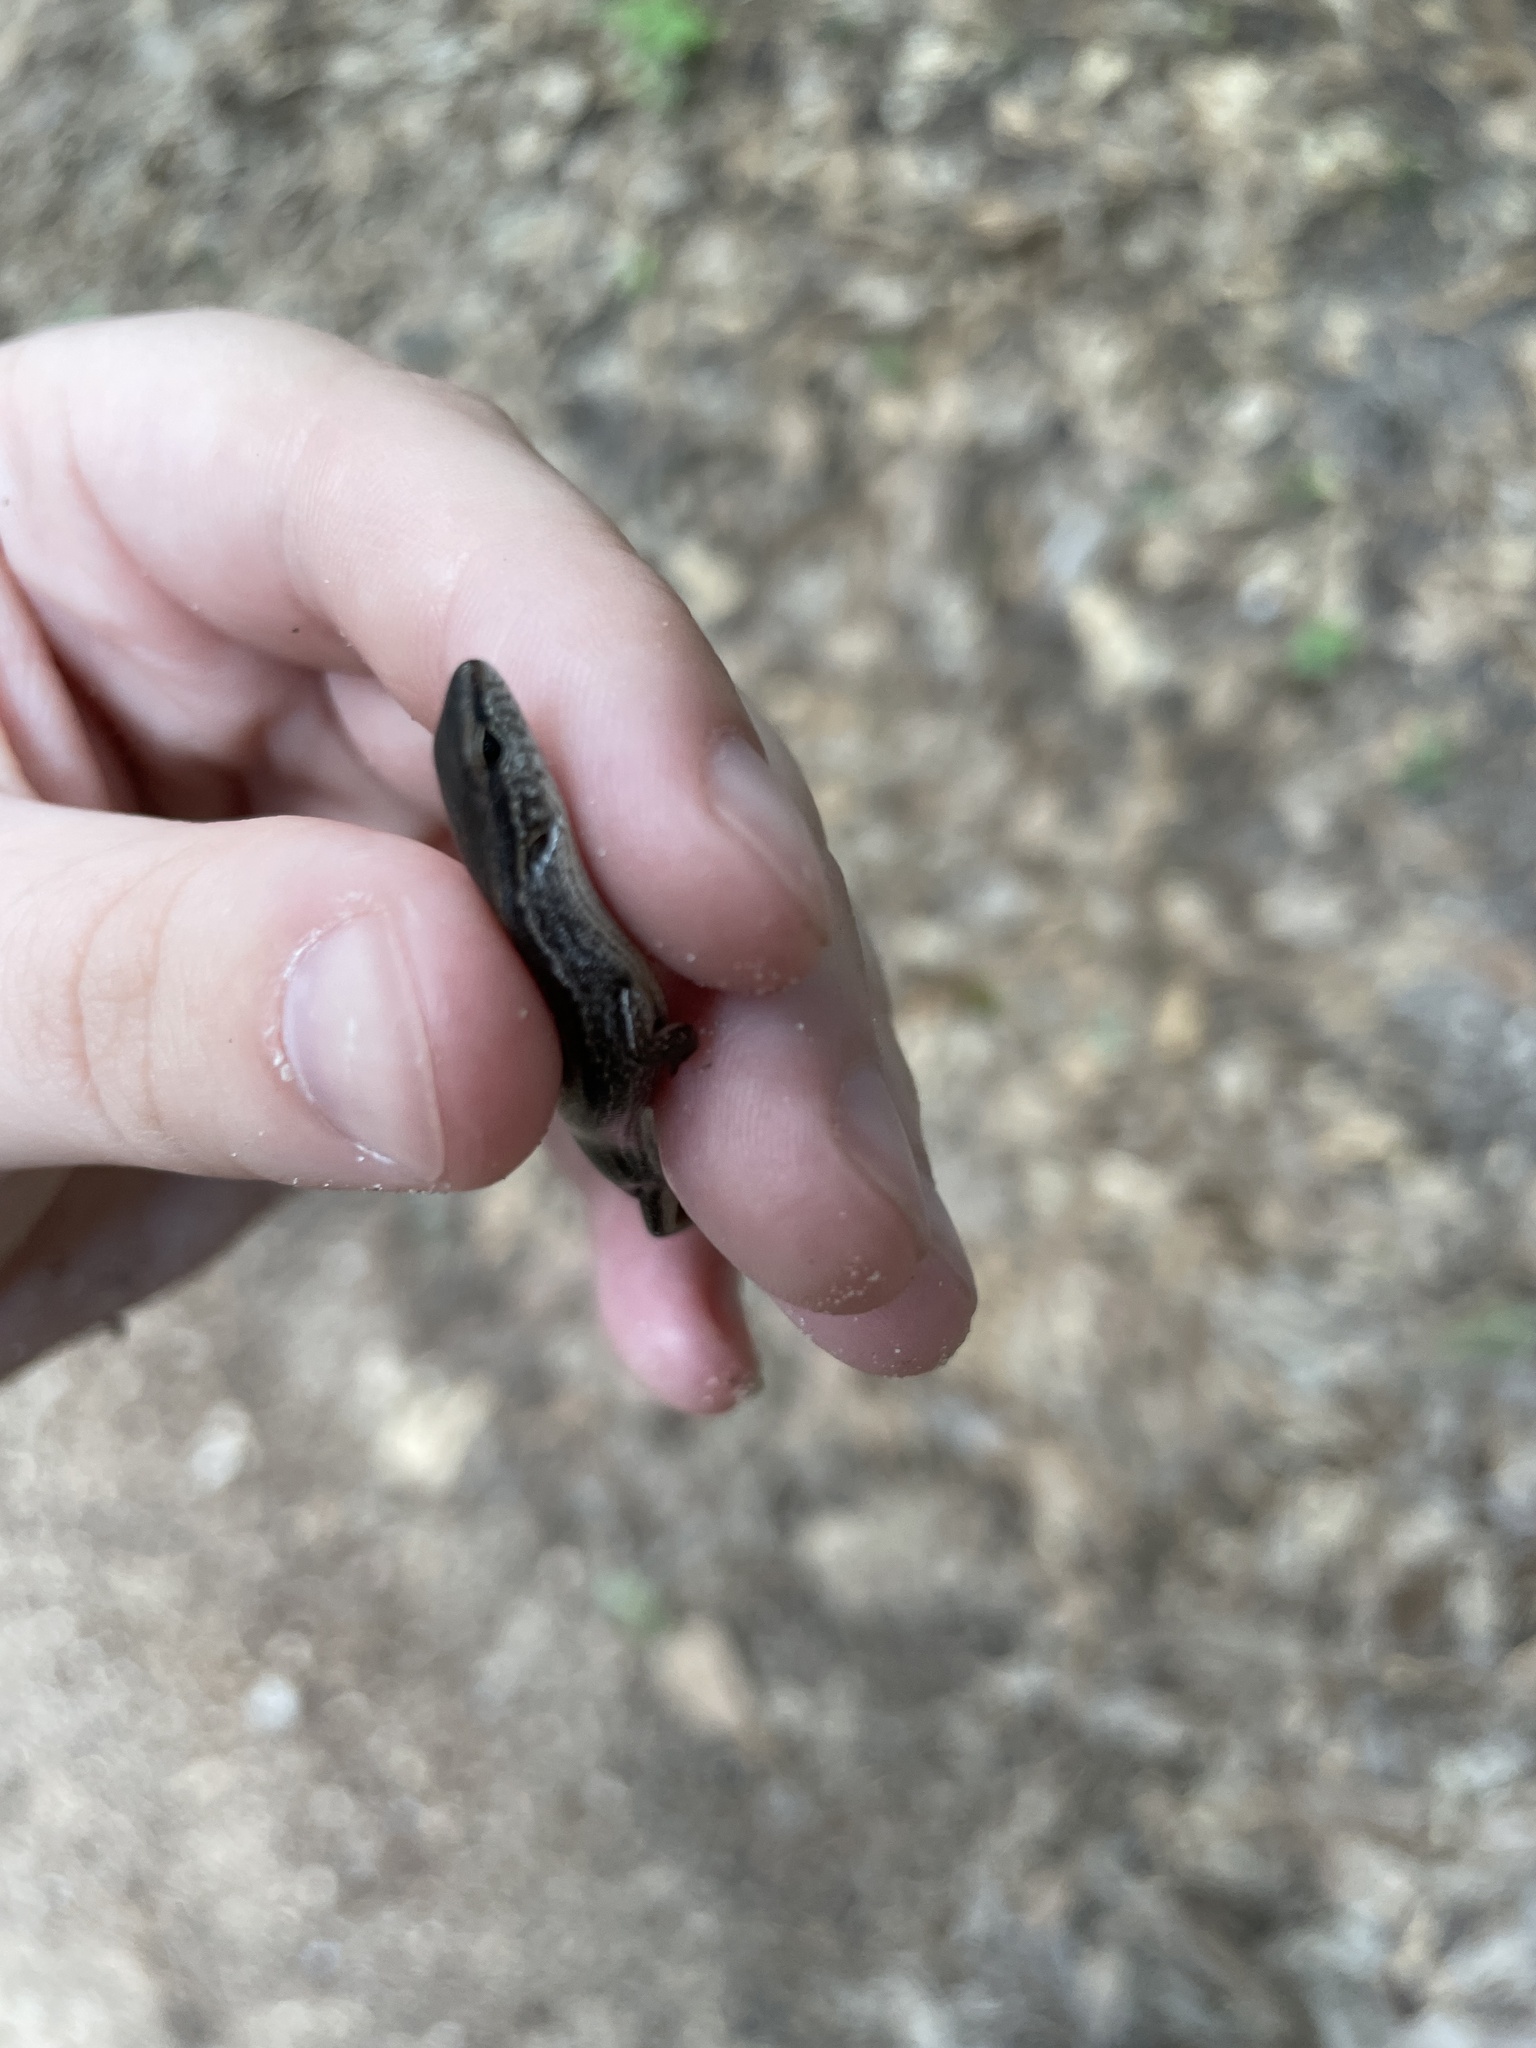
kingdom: Animalia
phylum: Chordata
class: Squamata
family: Scincidae
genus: Scincella
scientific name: Scincella lateralis
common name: Ground skink
